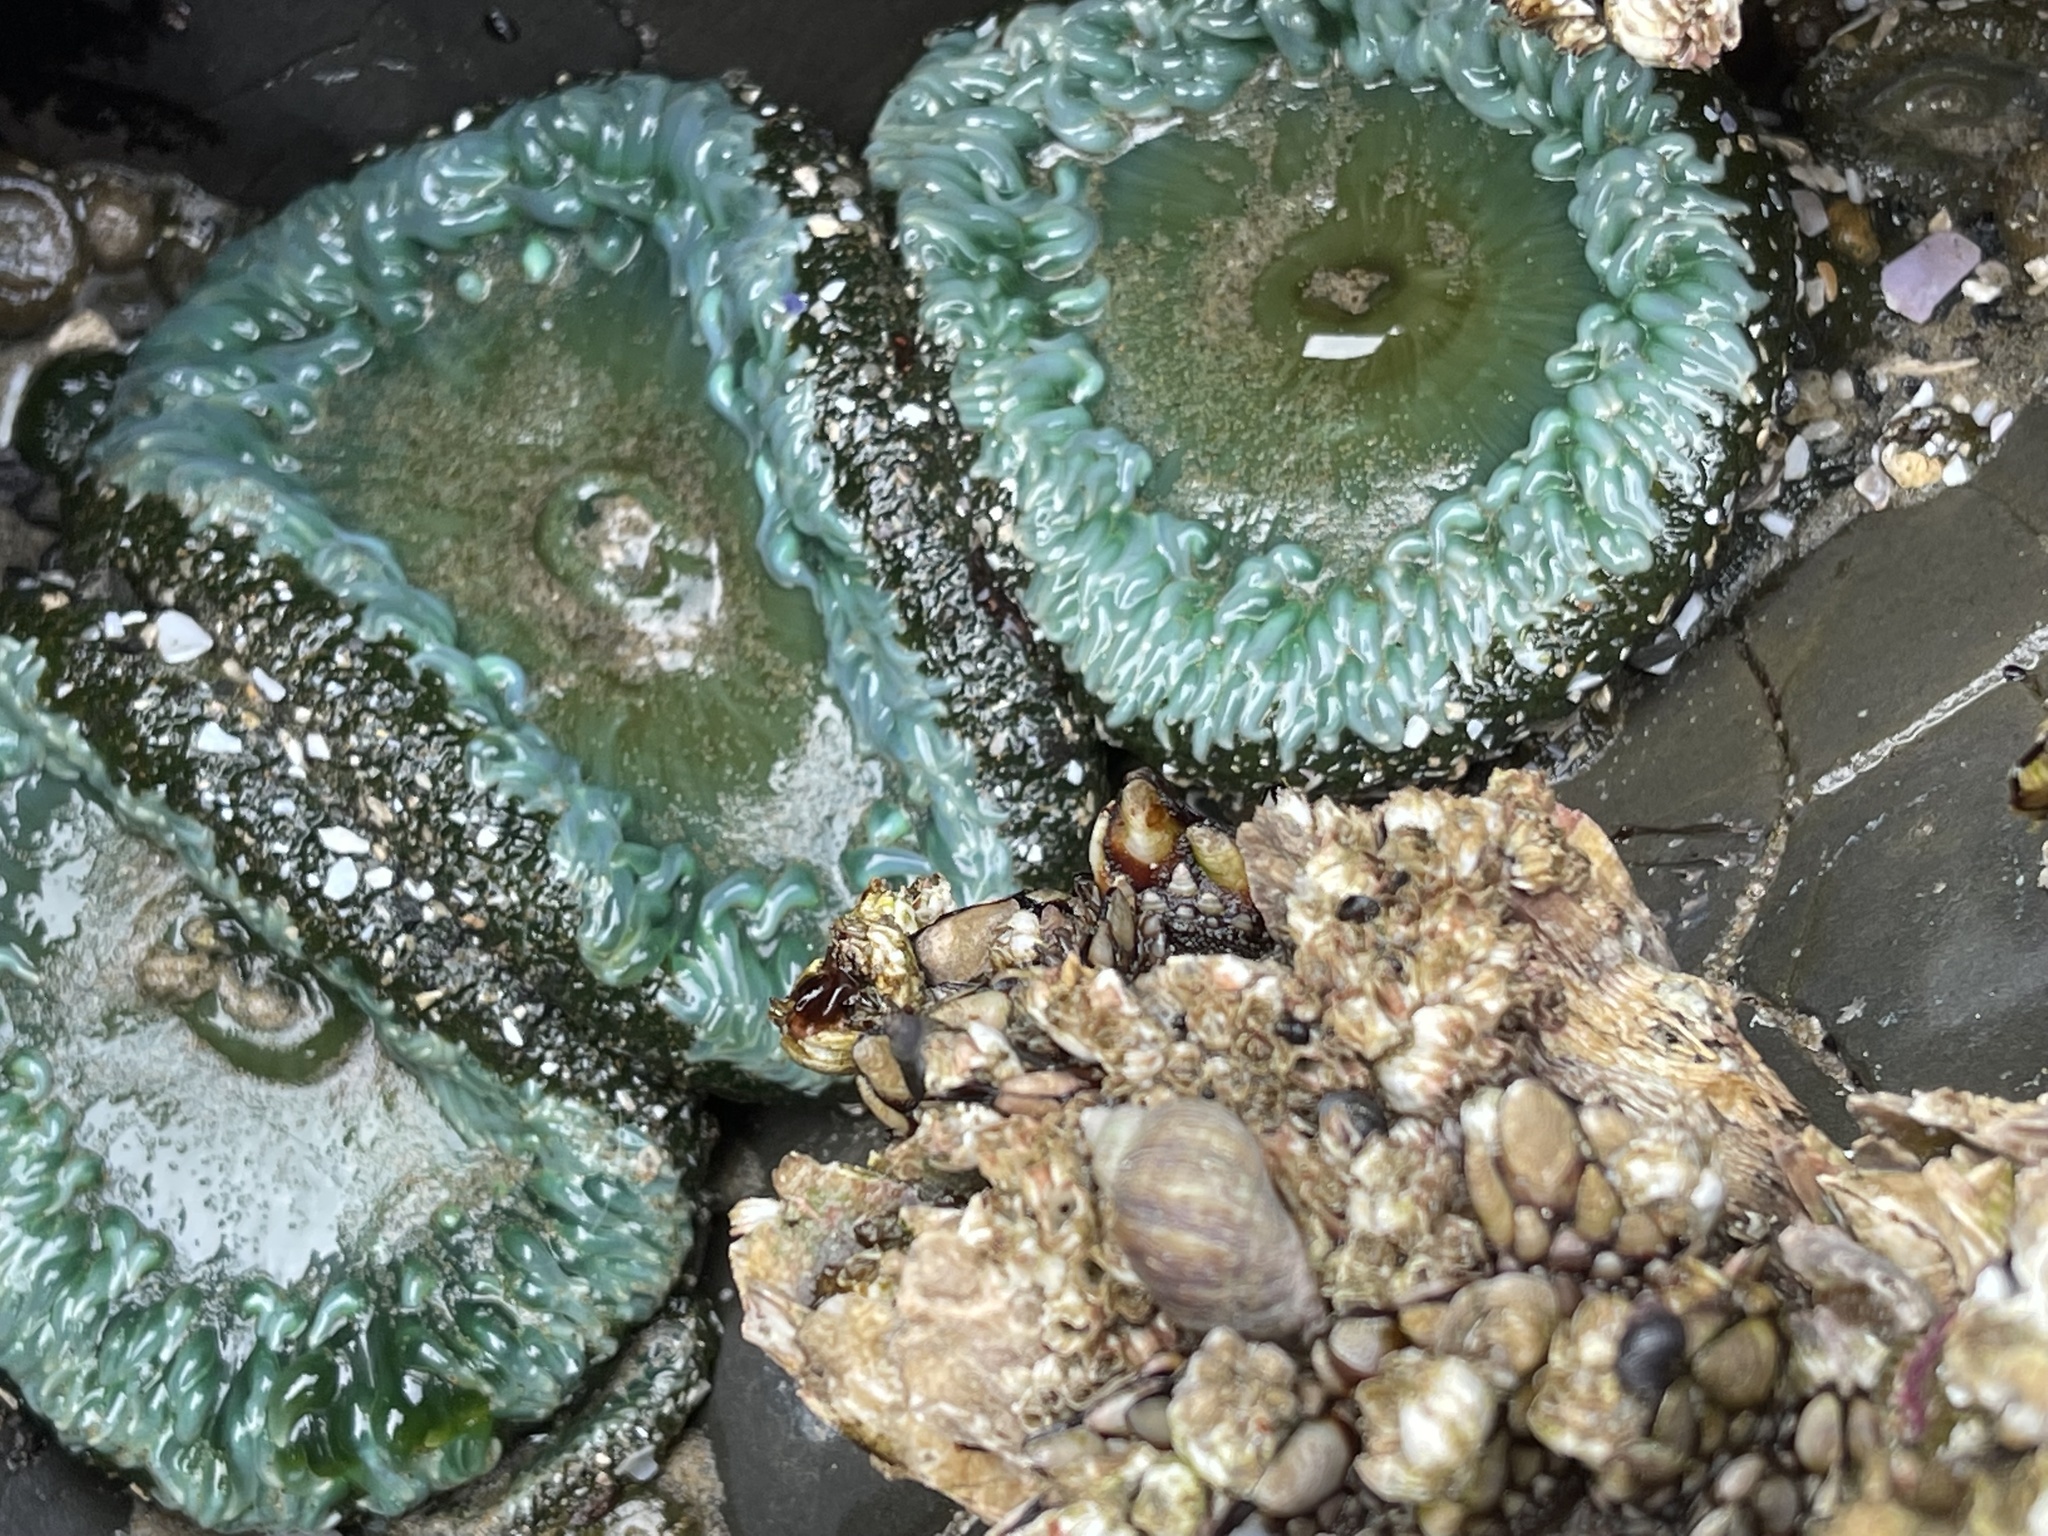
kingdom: Animalia
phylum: Cnidaria
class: Anthozoa
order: Actiniaria
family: Actiniidae
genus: Anthopleura
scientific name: Anthopleura xanthogrammica
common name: Giant green anemone
